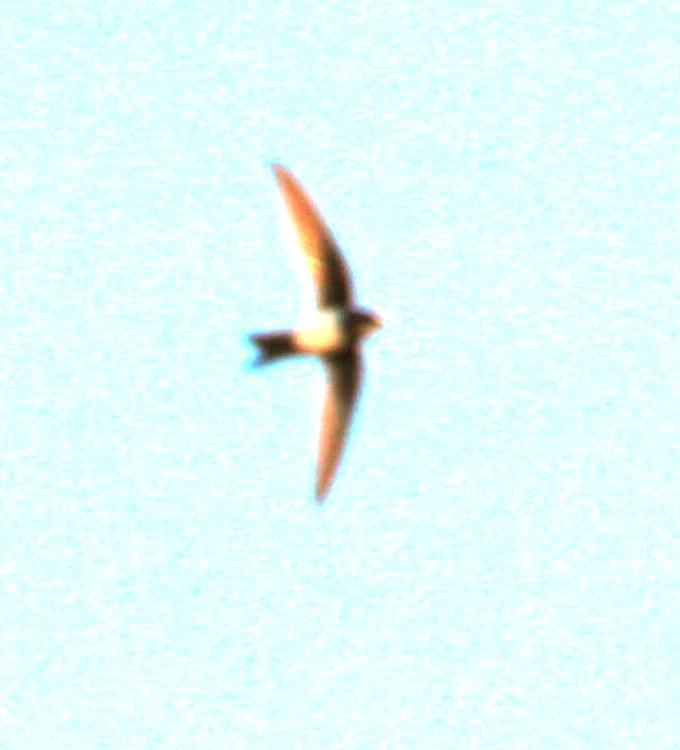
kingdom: Animalia
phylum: Chordata
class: Aves
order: Apodiformes
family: Apodidae
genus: Tachymarptis
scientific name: Tachymarptis melba
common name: Alpine swift
